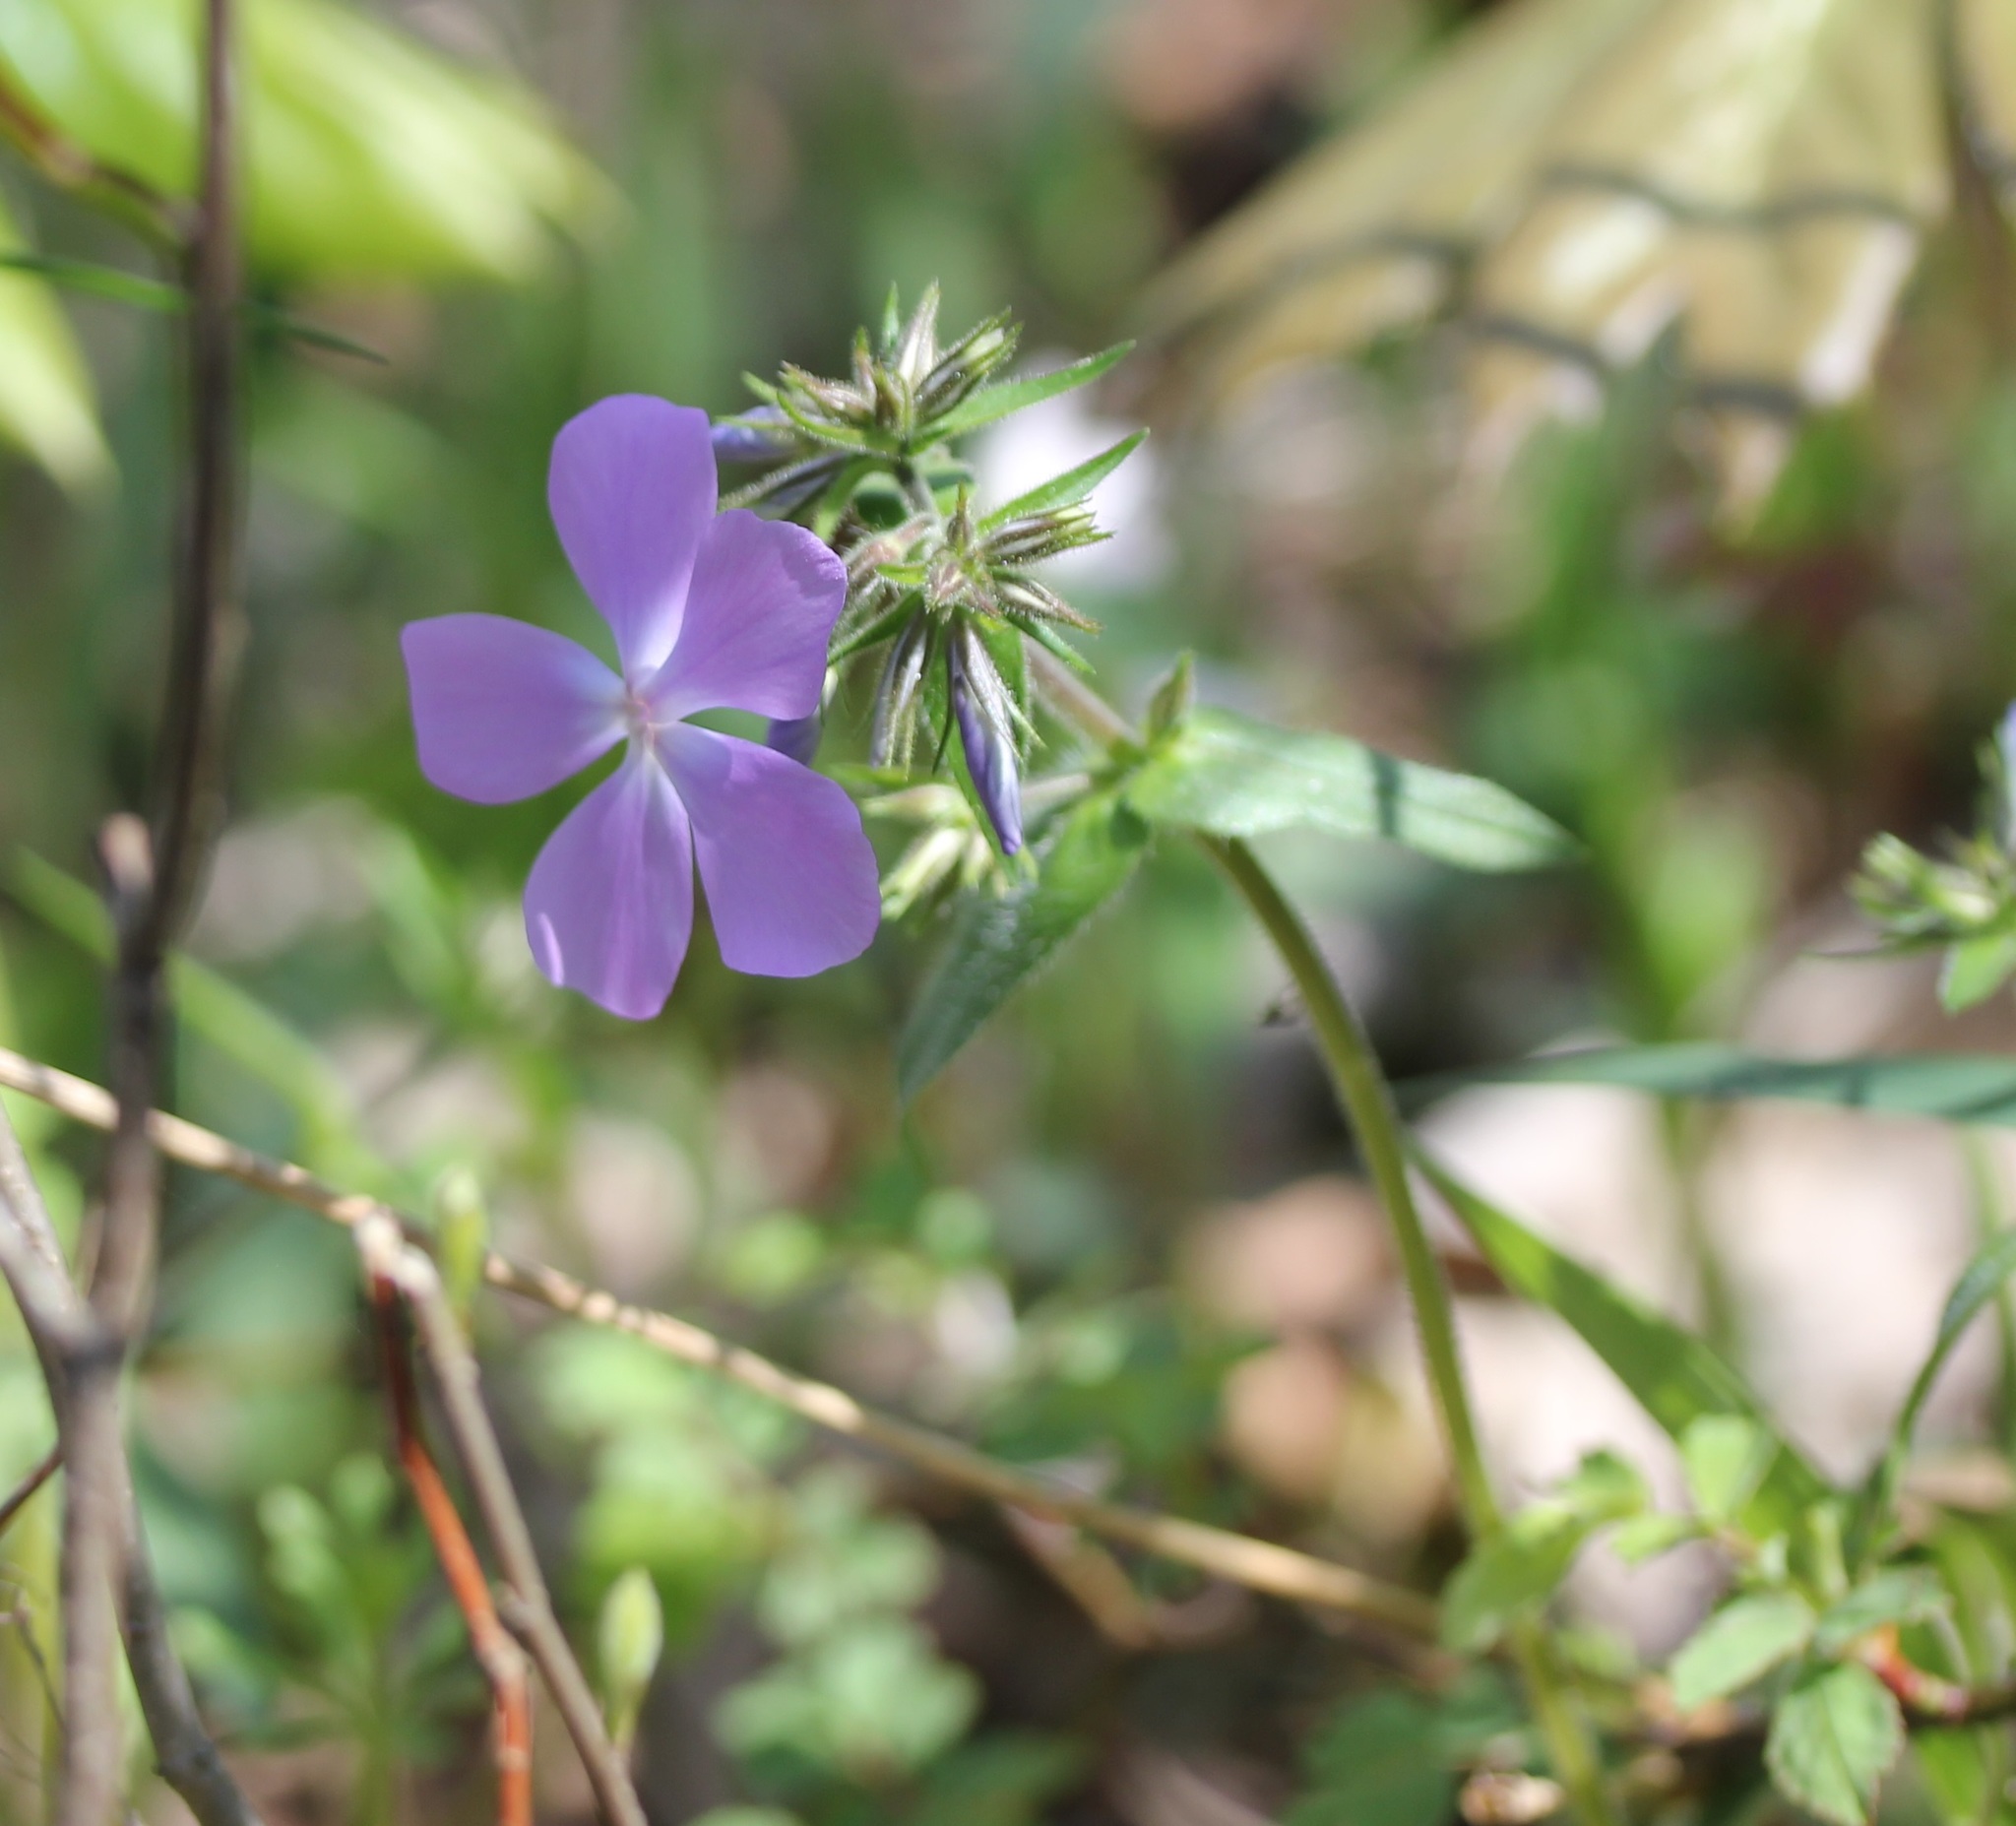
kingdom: Plantae
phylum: Tracheophyta
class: Magnoliopsida
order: Ericales
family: Polemoniaceae
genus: Phlox
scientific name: Phlox divaricata
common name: Blue phlox
